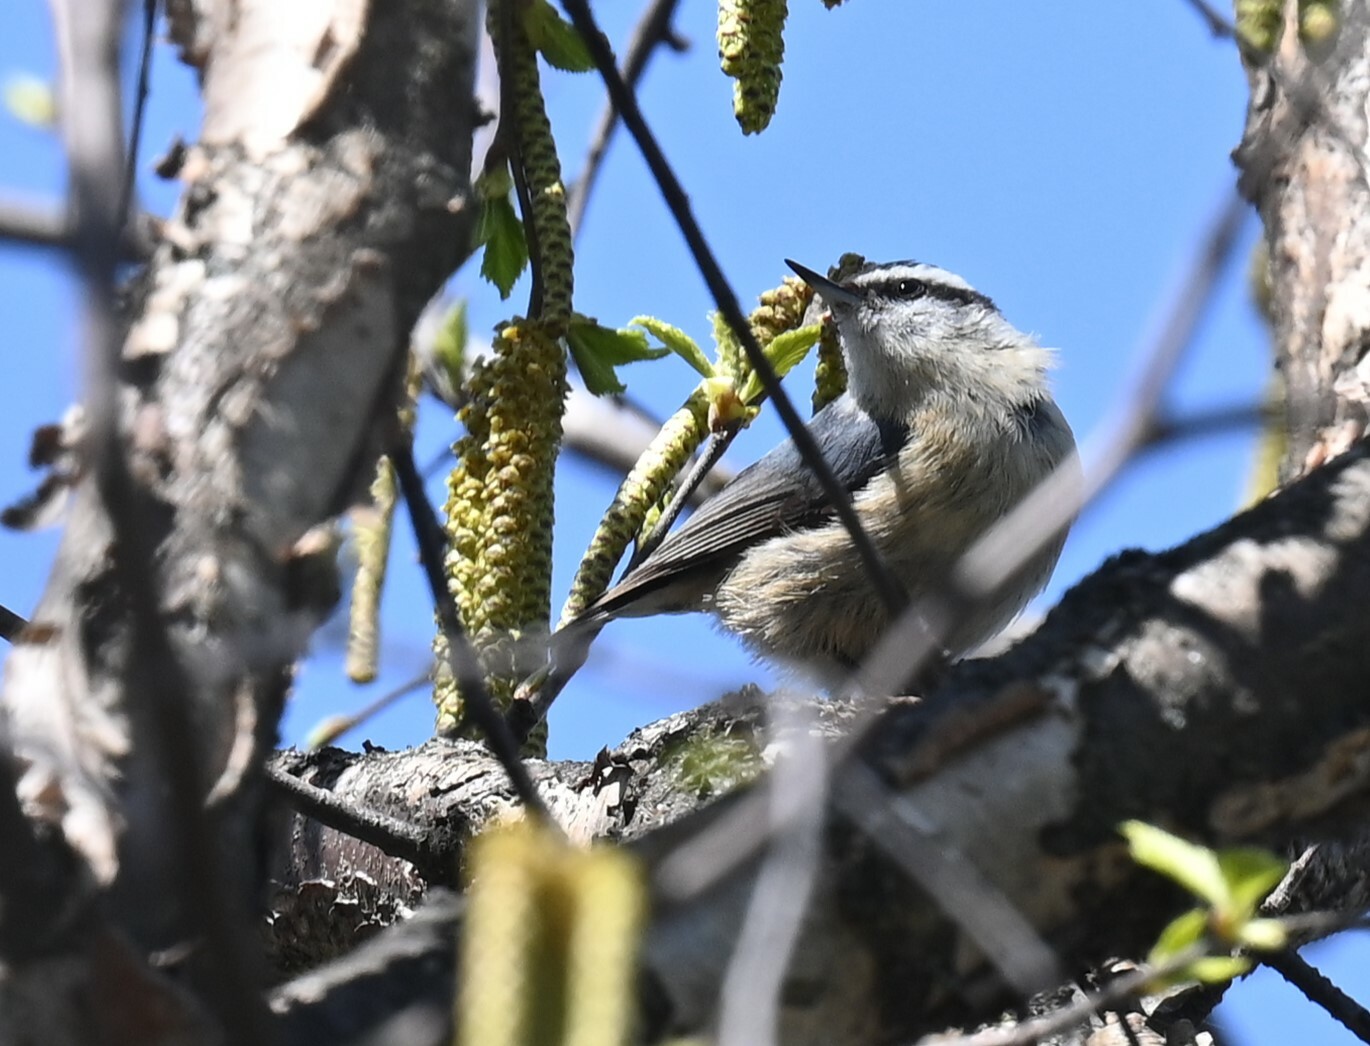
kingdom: Animalia
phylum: Chordata
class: Aves
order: Passeriformes
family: Sittidae
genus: Sitta
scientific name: Sitta canadensis
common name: Red-breasted nuthatch
